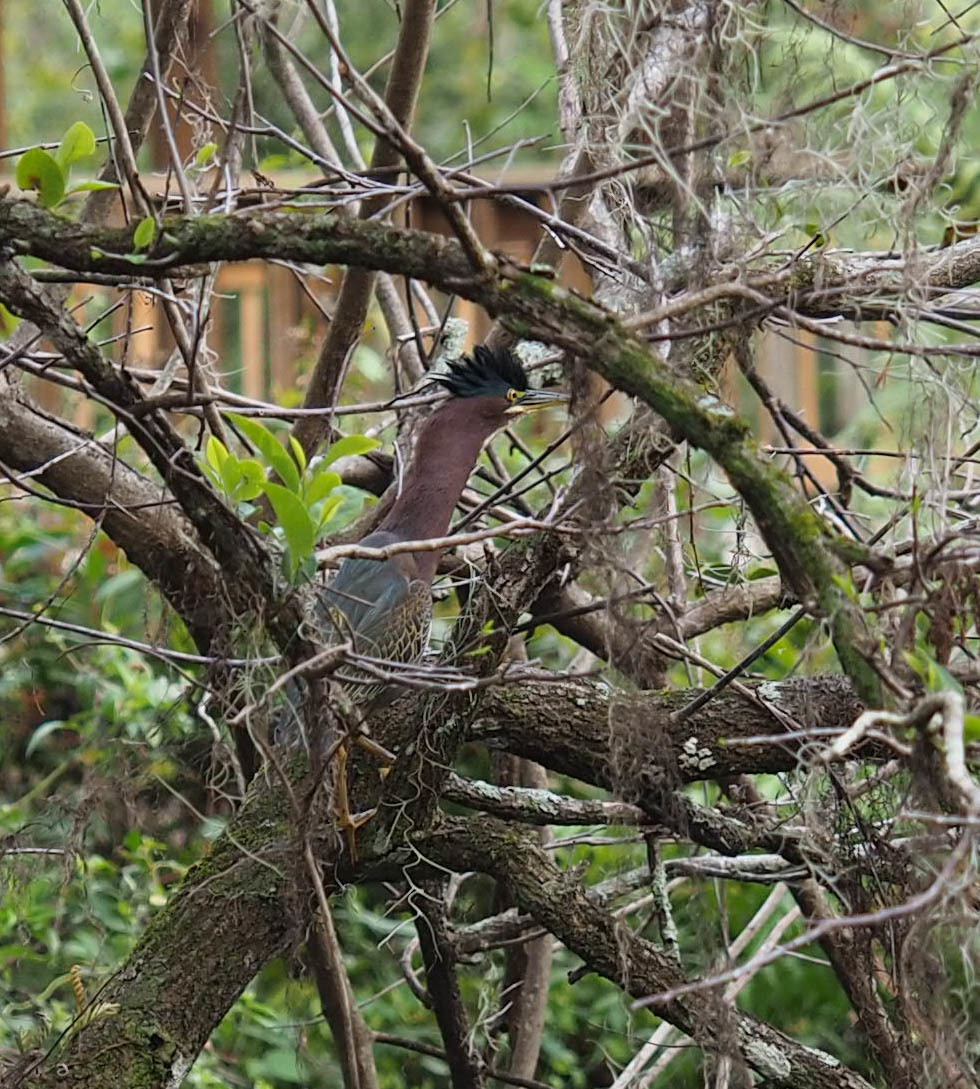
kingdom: Animalia
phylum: Chordata
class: Aves
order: Pelecaniformes
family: Ardeidae
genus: Butorides
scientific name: Butorides virescens
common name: Green heron
